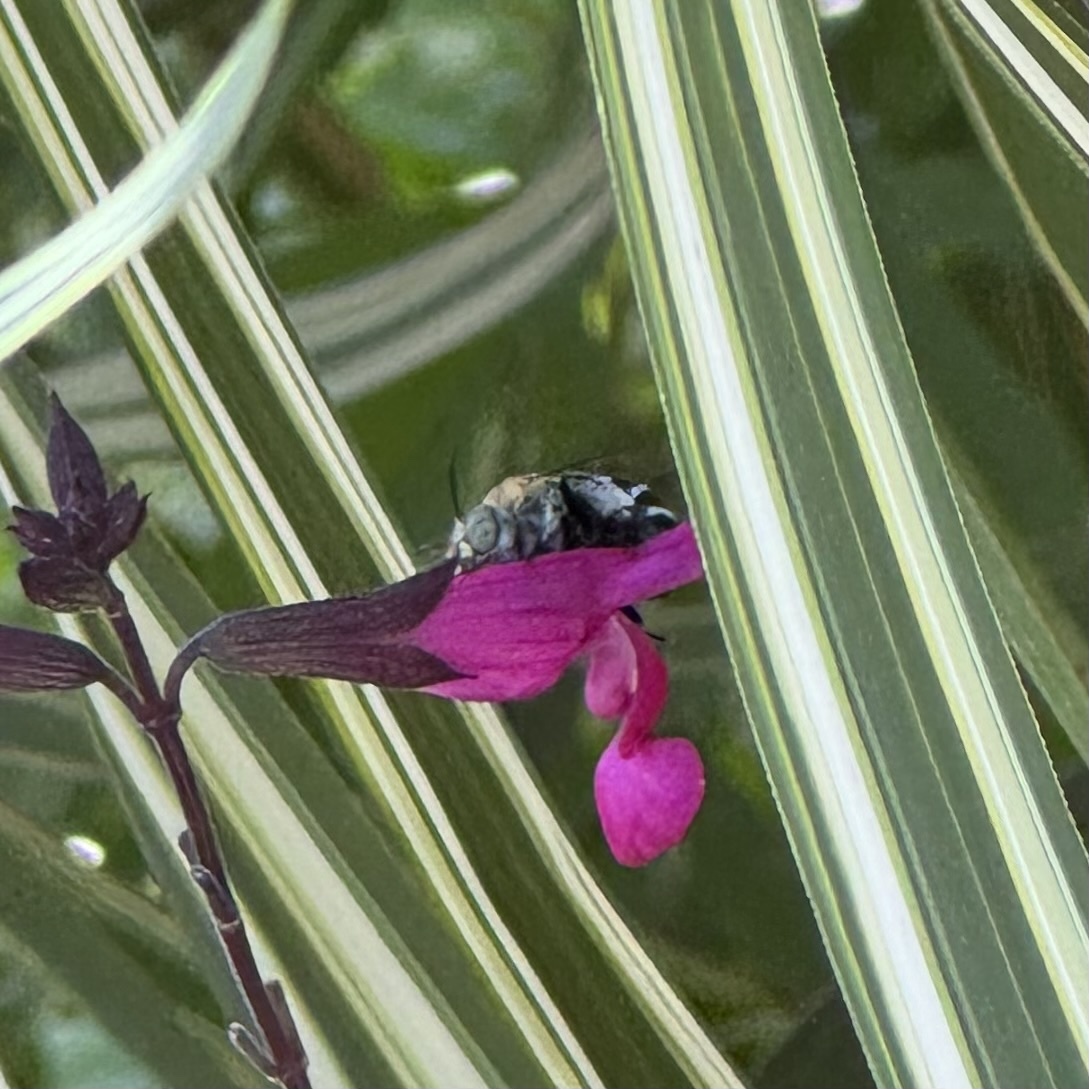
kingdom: Animalia
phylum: Arthropoda
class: Insecta
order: Hymenoptera
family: Apidae
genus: Amegilla
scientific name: Amegilla asserta
